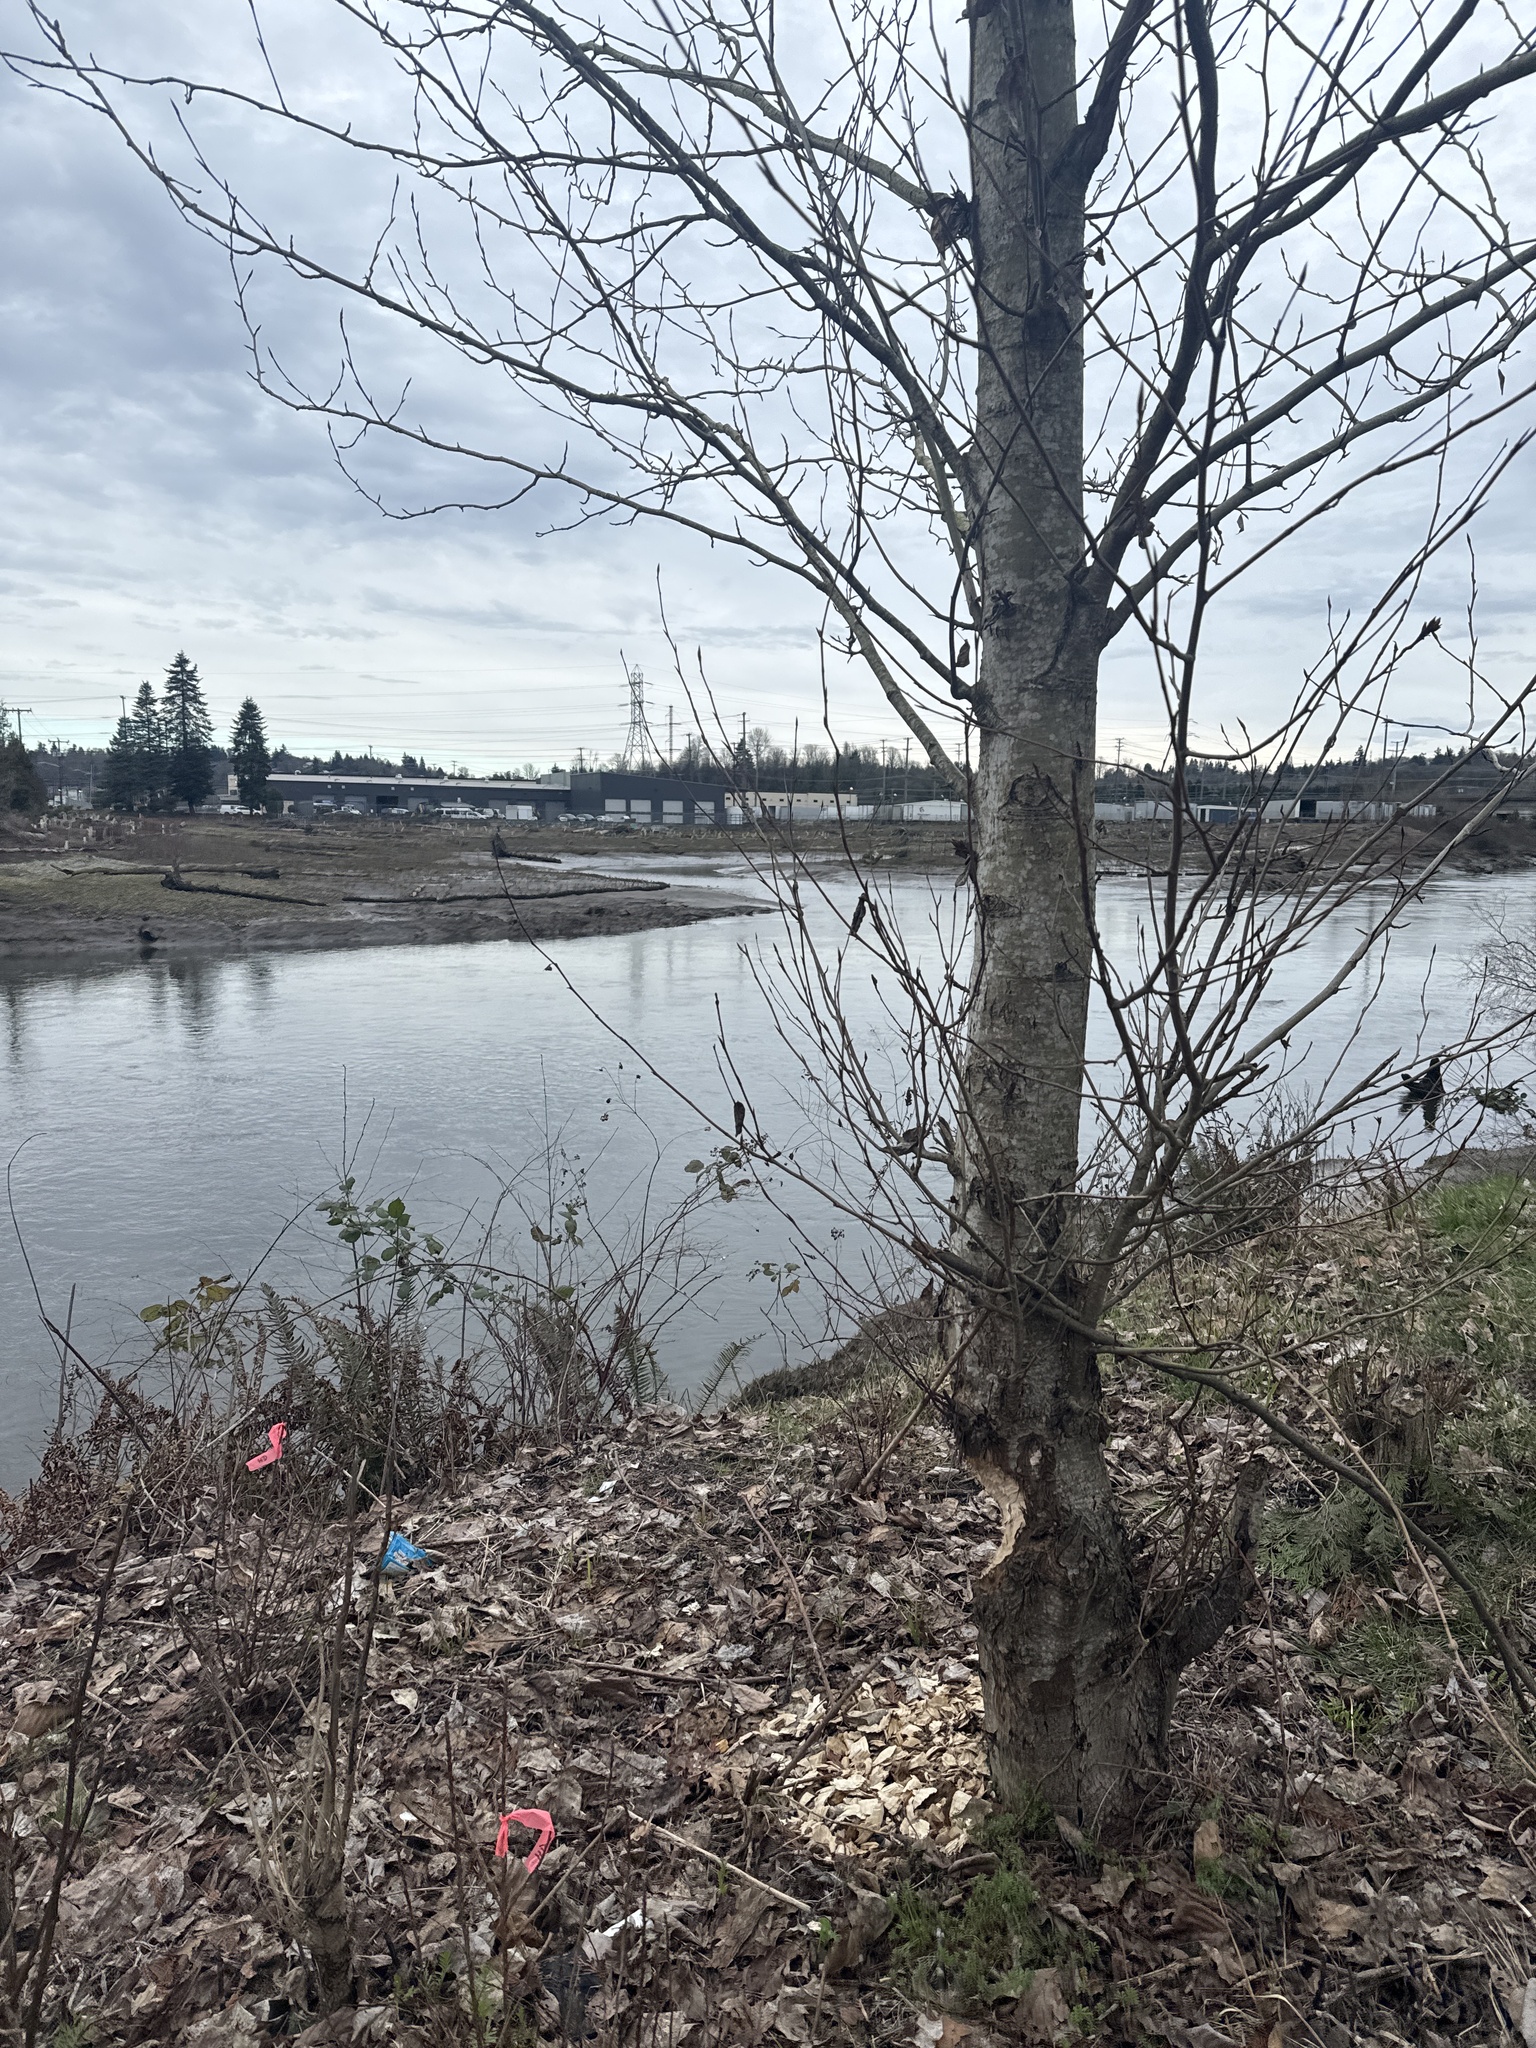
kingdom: Animalia
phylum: Chordata
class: Mammalia
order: Rodentia
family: Castoridae
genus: Castor
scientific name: Castor canadensis
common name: American beaver
